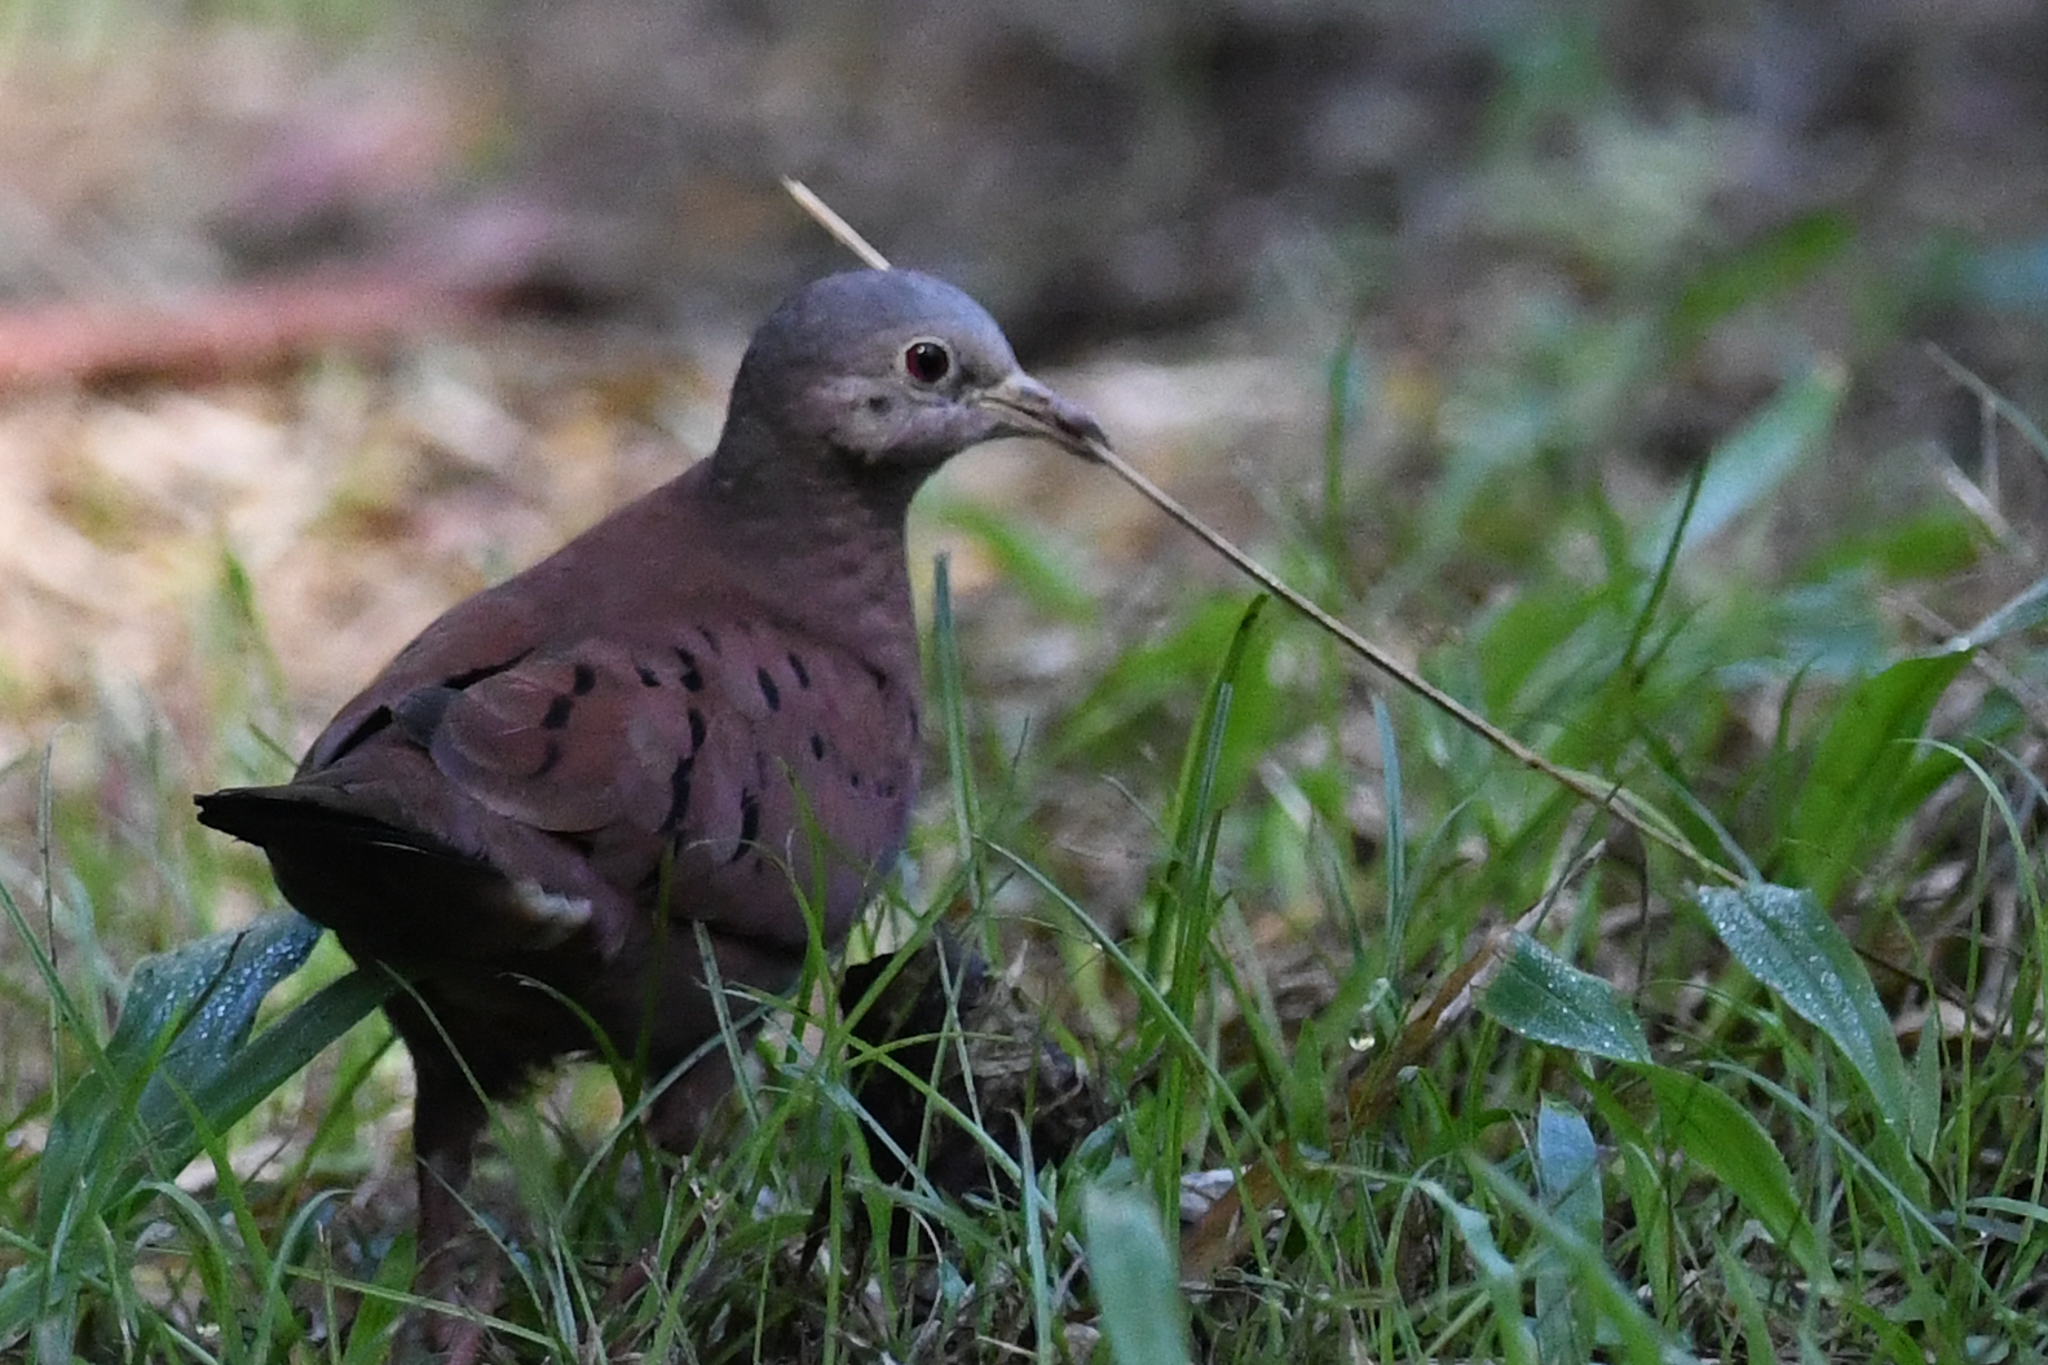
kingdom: Animalia
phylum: Chordata
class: Aves
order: Columbiformes
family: Columbidae
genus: Columbina
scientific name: Columbina talpacoti
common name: Ruddy ground dove
